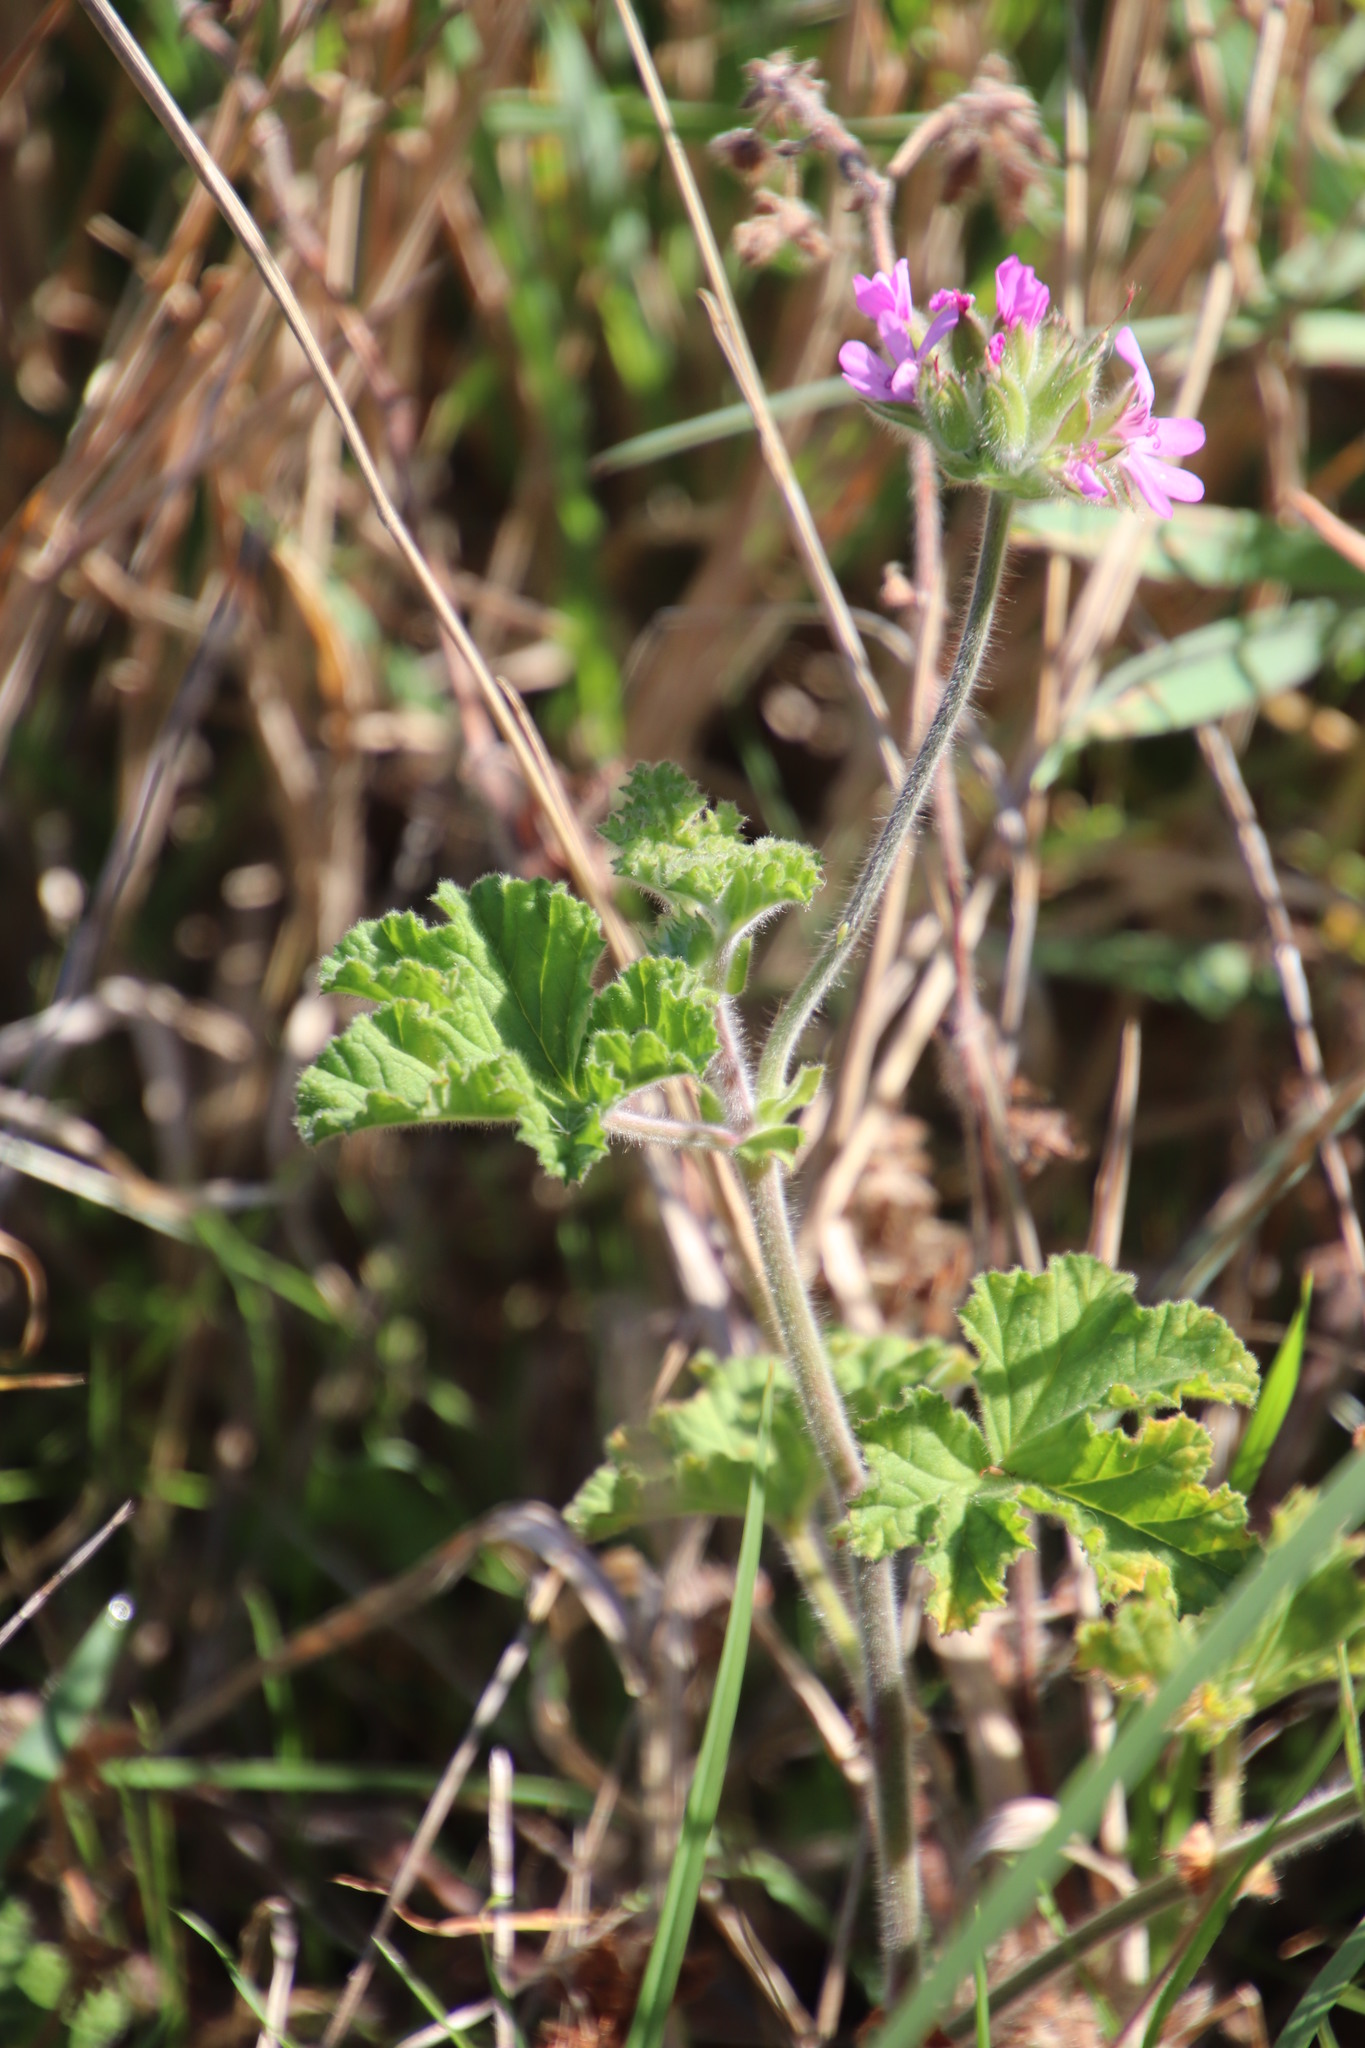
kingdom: Plantae
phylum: Tracheophyta
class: Magnoliopsida
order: Geraniales
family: Geraniaceae
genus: Pelargonium
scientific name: Pelargonium capitatum
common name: Rose scented geranium
